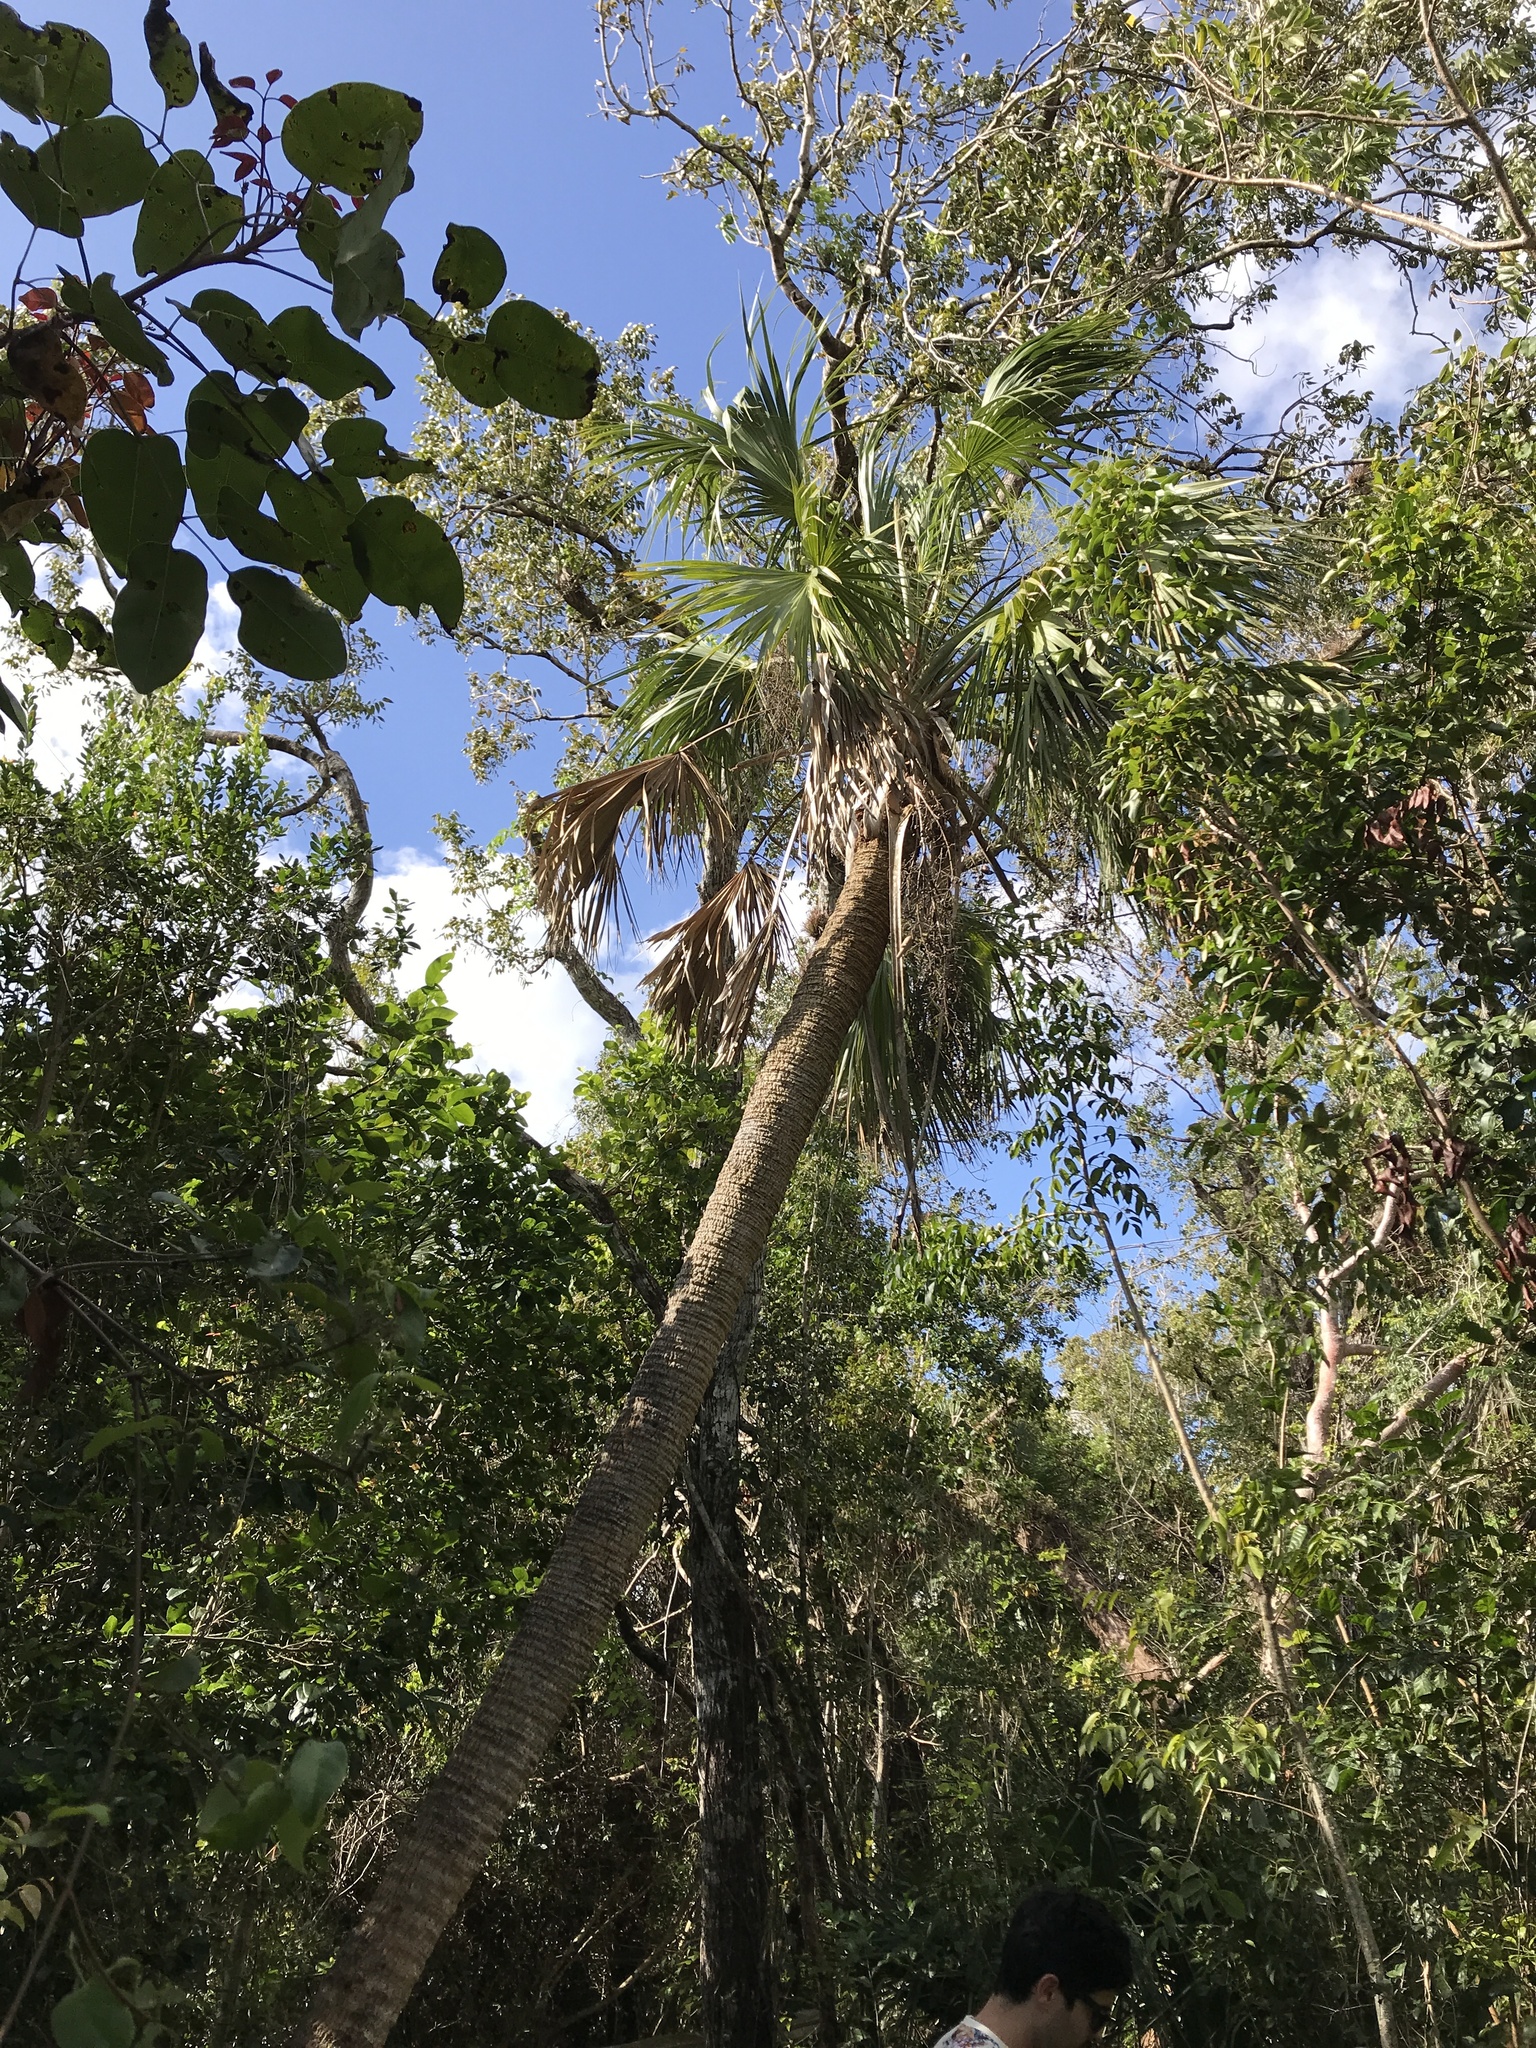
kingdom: Plantae
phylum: Tracheophyta
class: Liliopsida
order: Arecales
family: Arecaceae
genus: Sabal
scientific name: Sabal palmetto
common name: Blue palmetto
